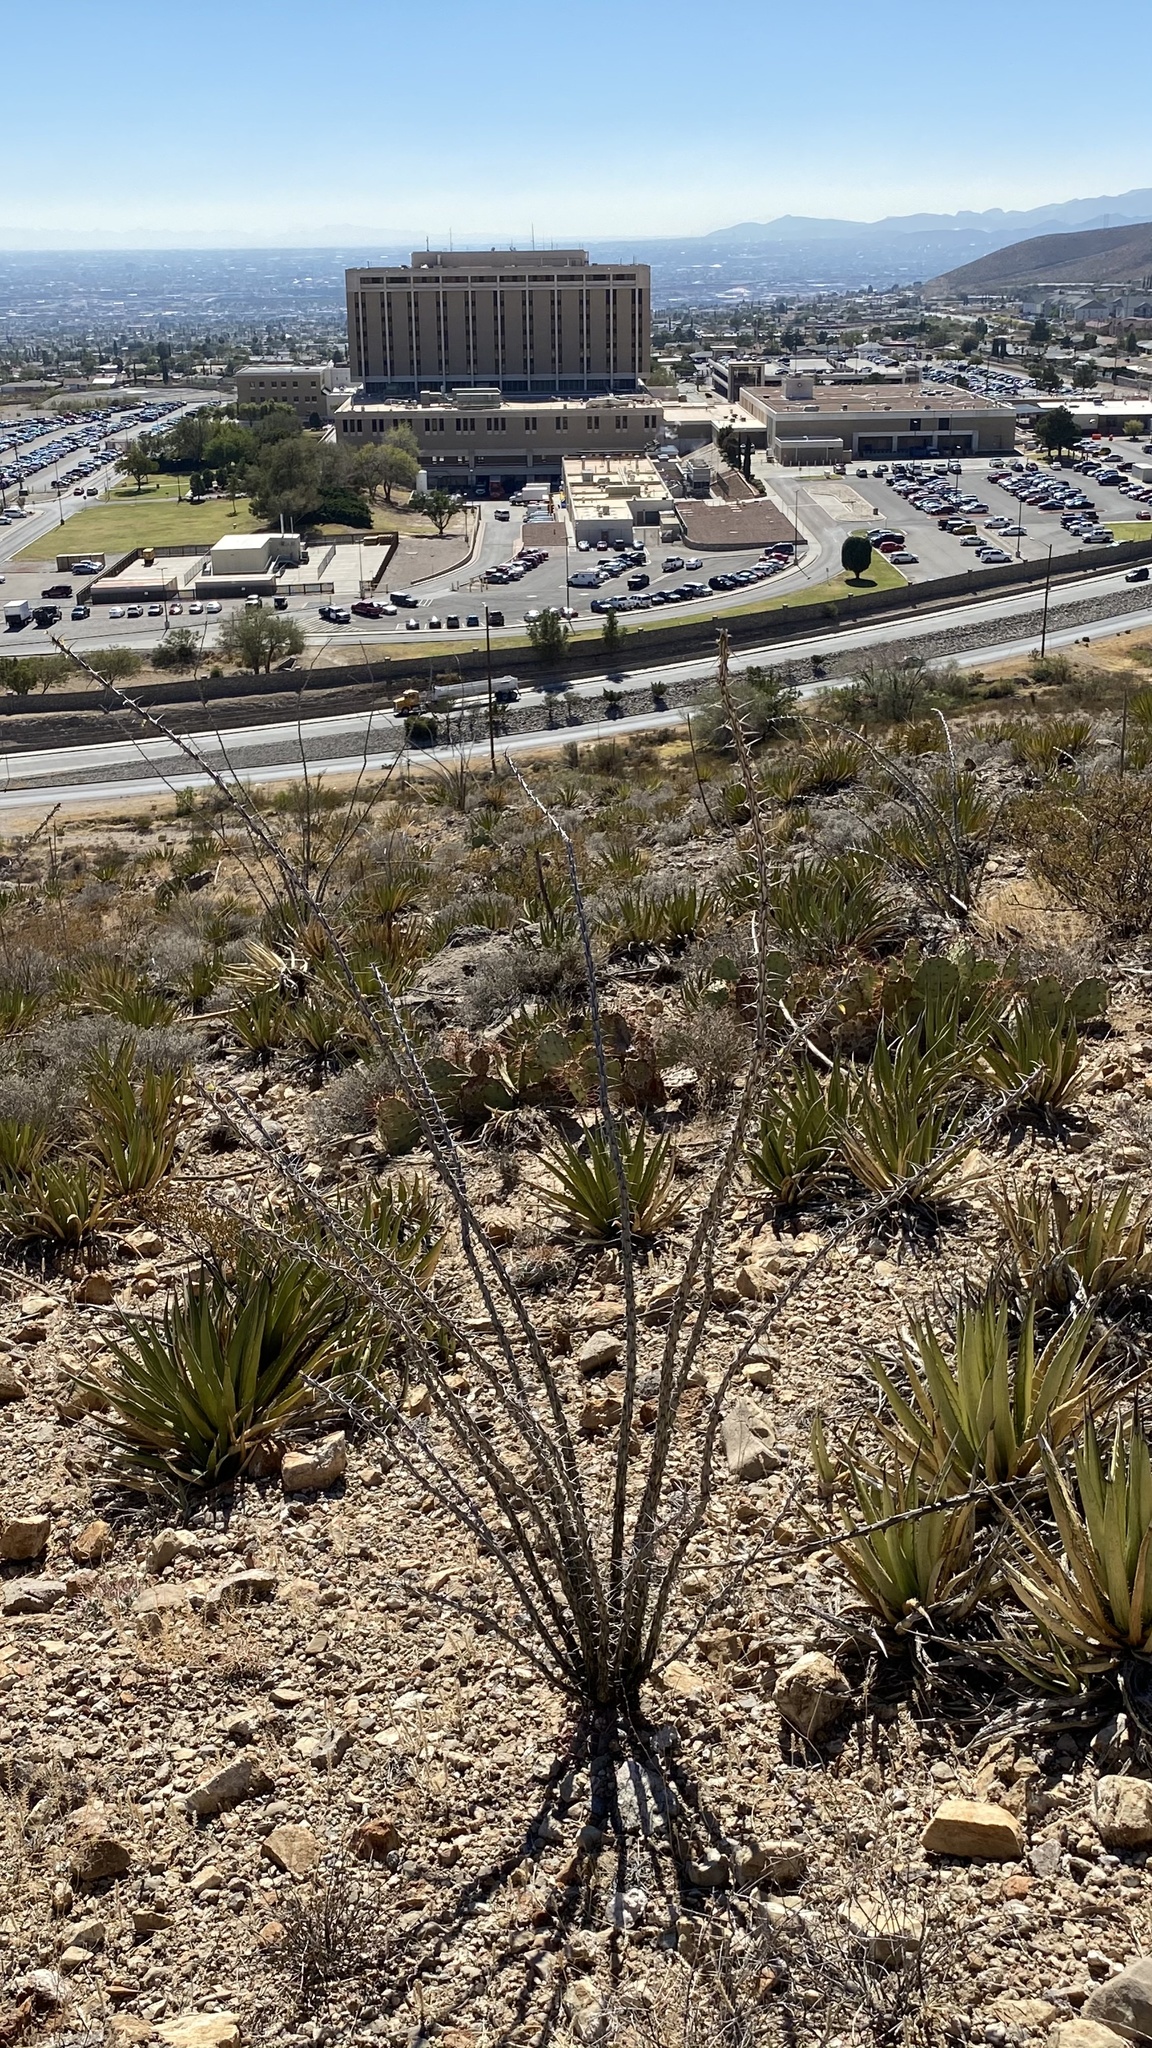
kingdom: Plantae
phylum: Tracheophyta
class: Magnoliopsida
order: Ericales
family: Fouquieriaceae
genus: Fouquieria
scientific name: Fouquieria splendens
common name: Vine-cactus
